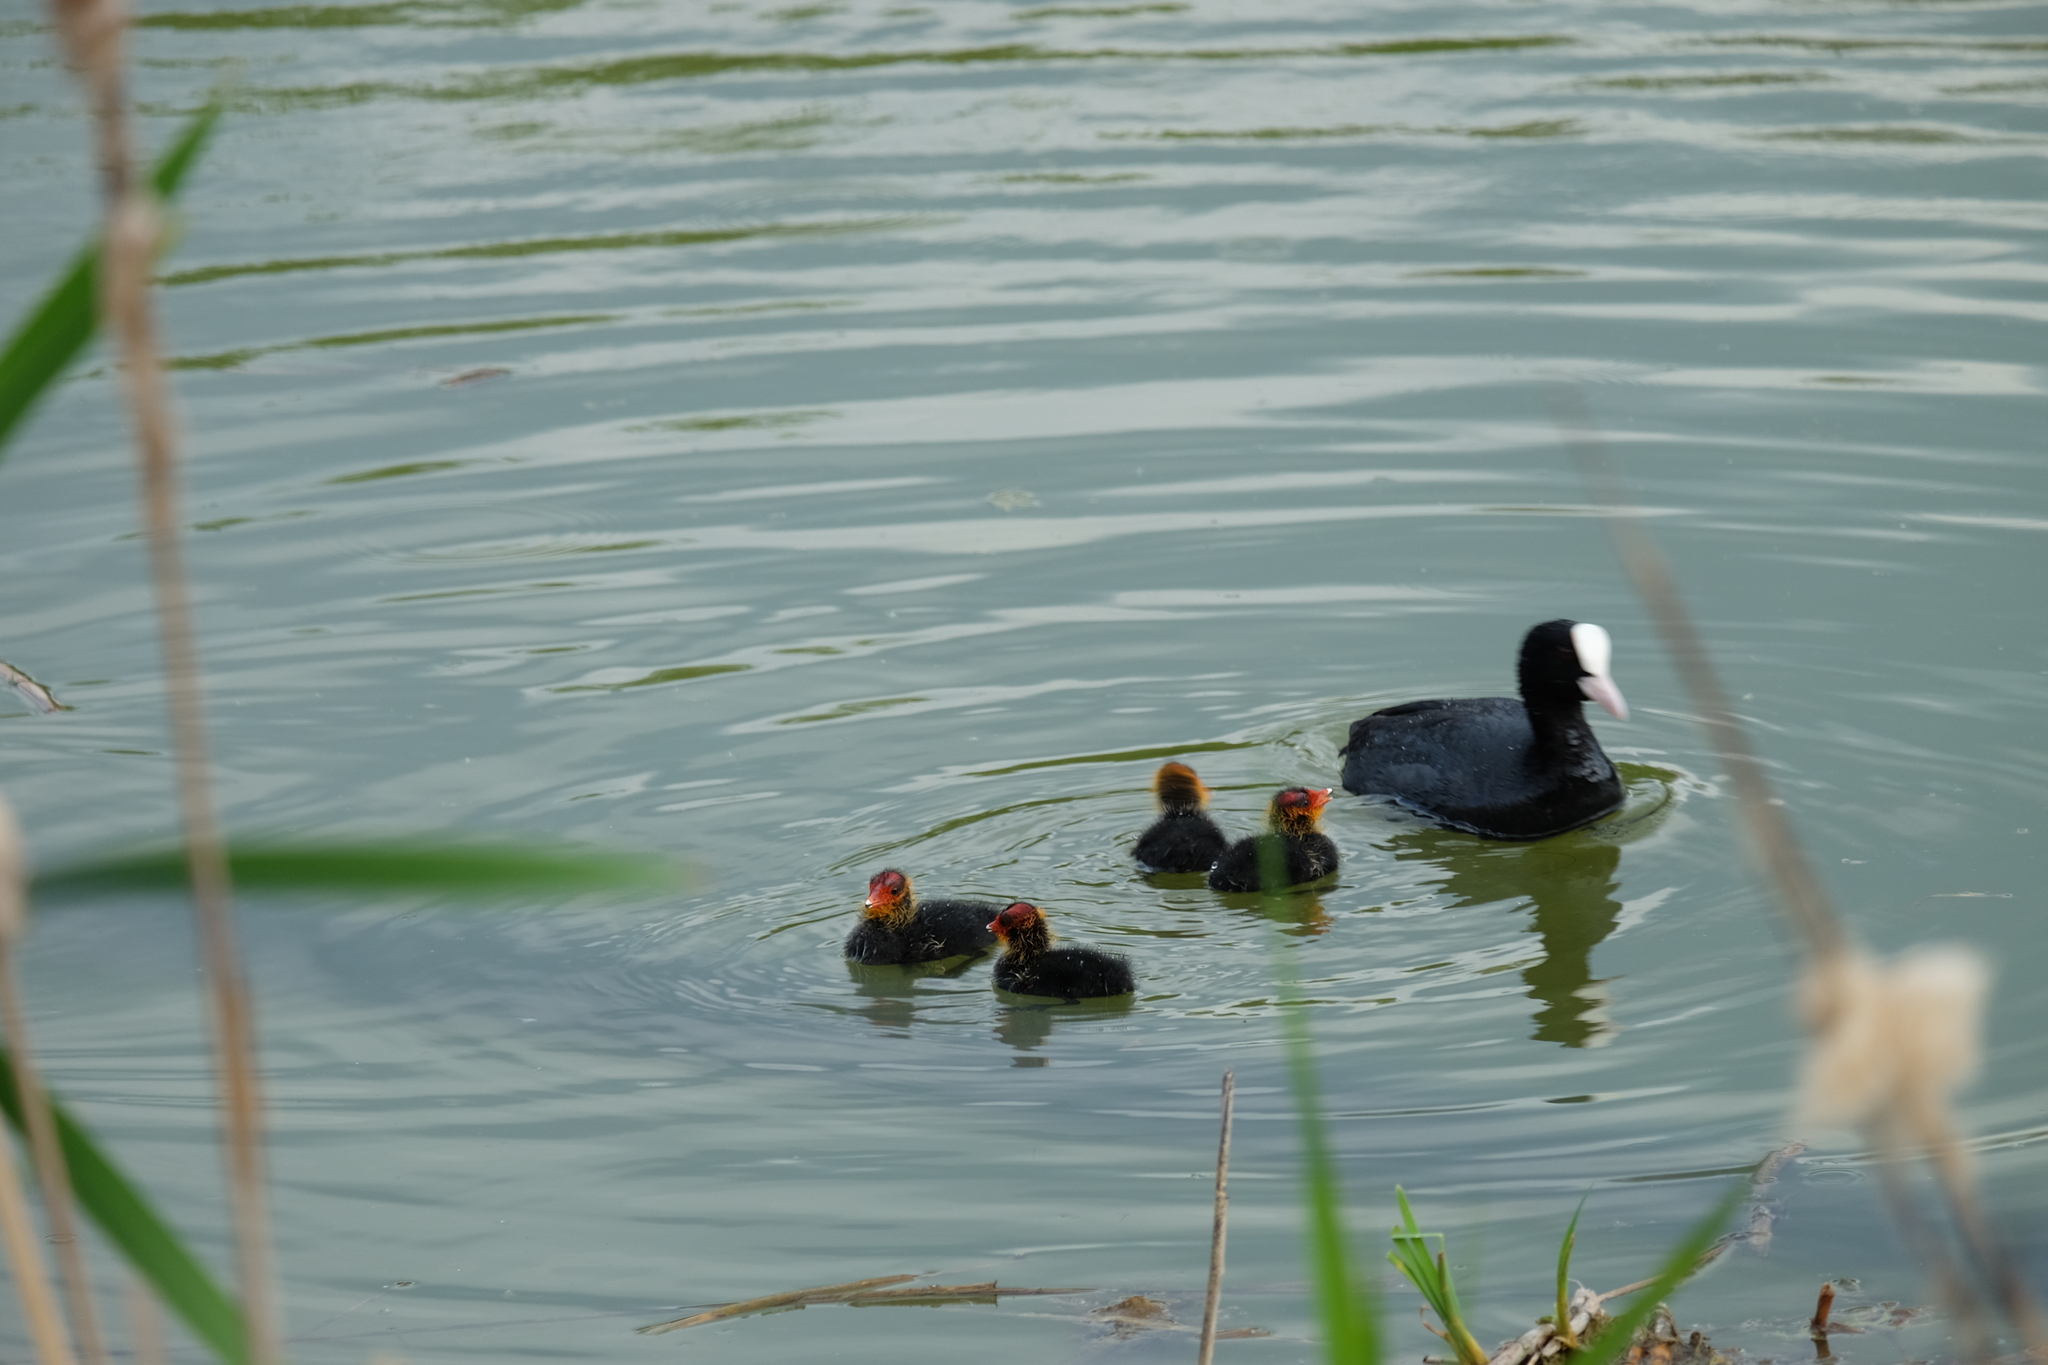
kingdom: Animalia
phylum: Chordata
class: Aves
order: Gruiformes
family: Rallidae
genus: Fulica
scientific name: Fulica atra
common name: Eurasian coot
